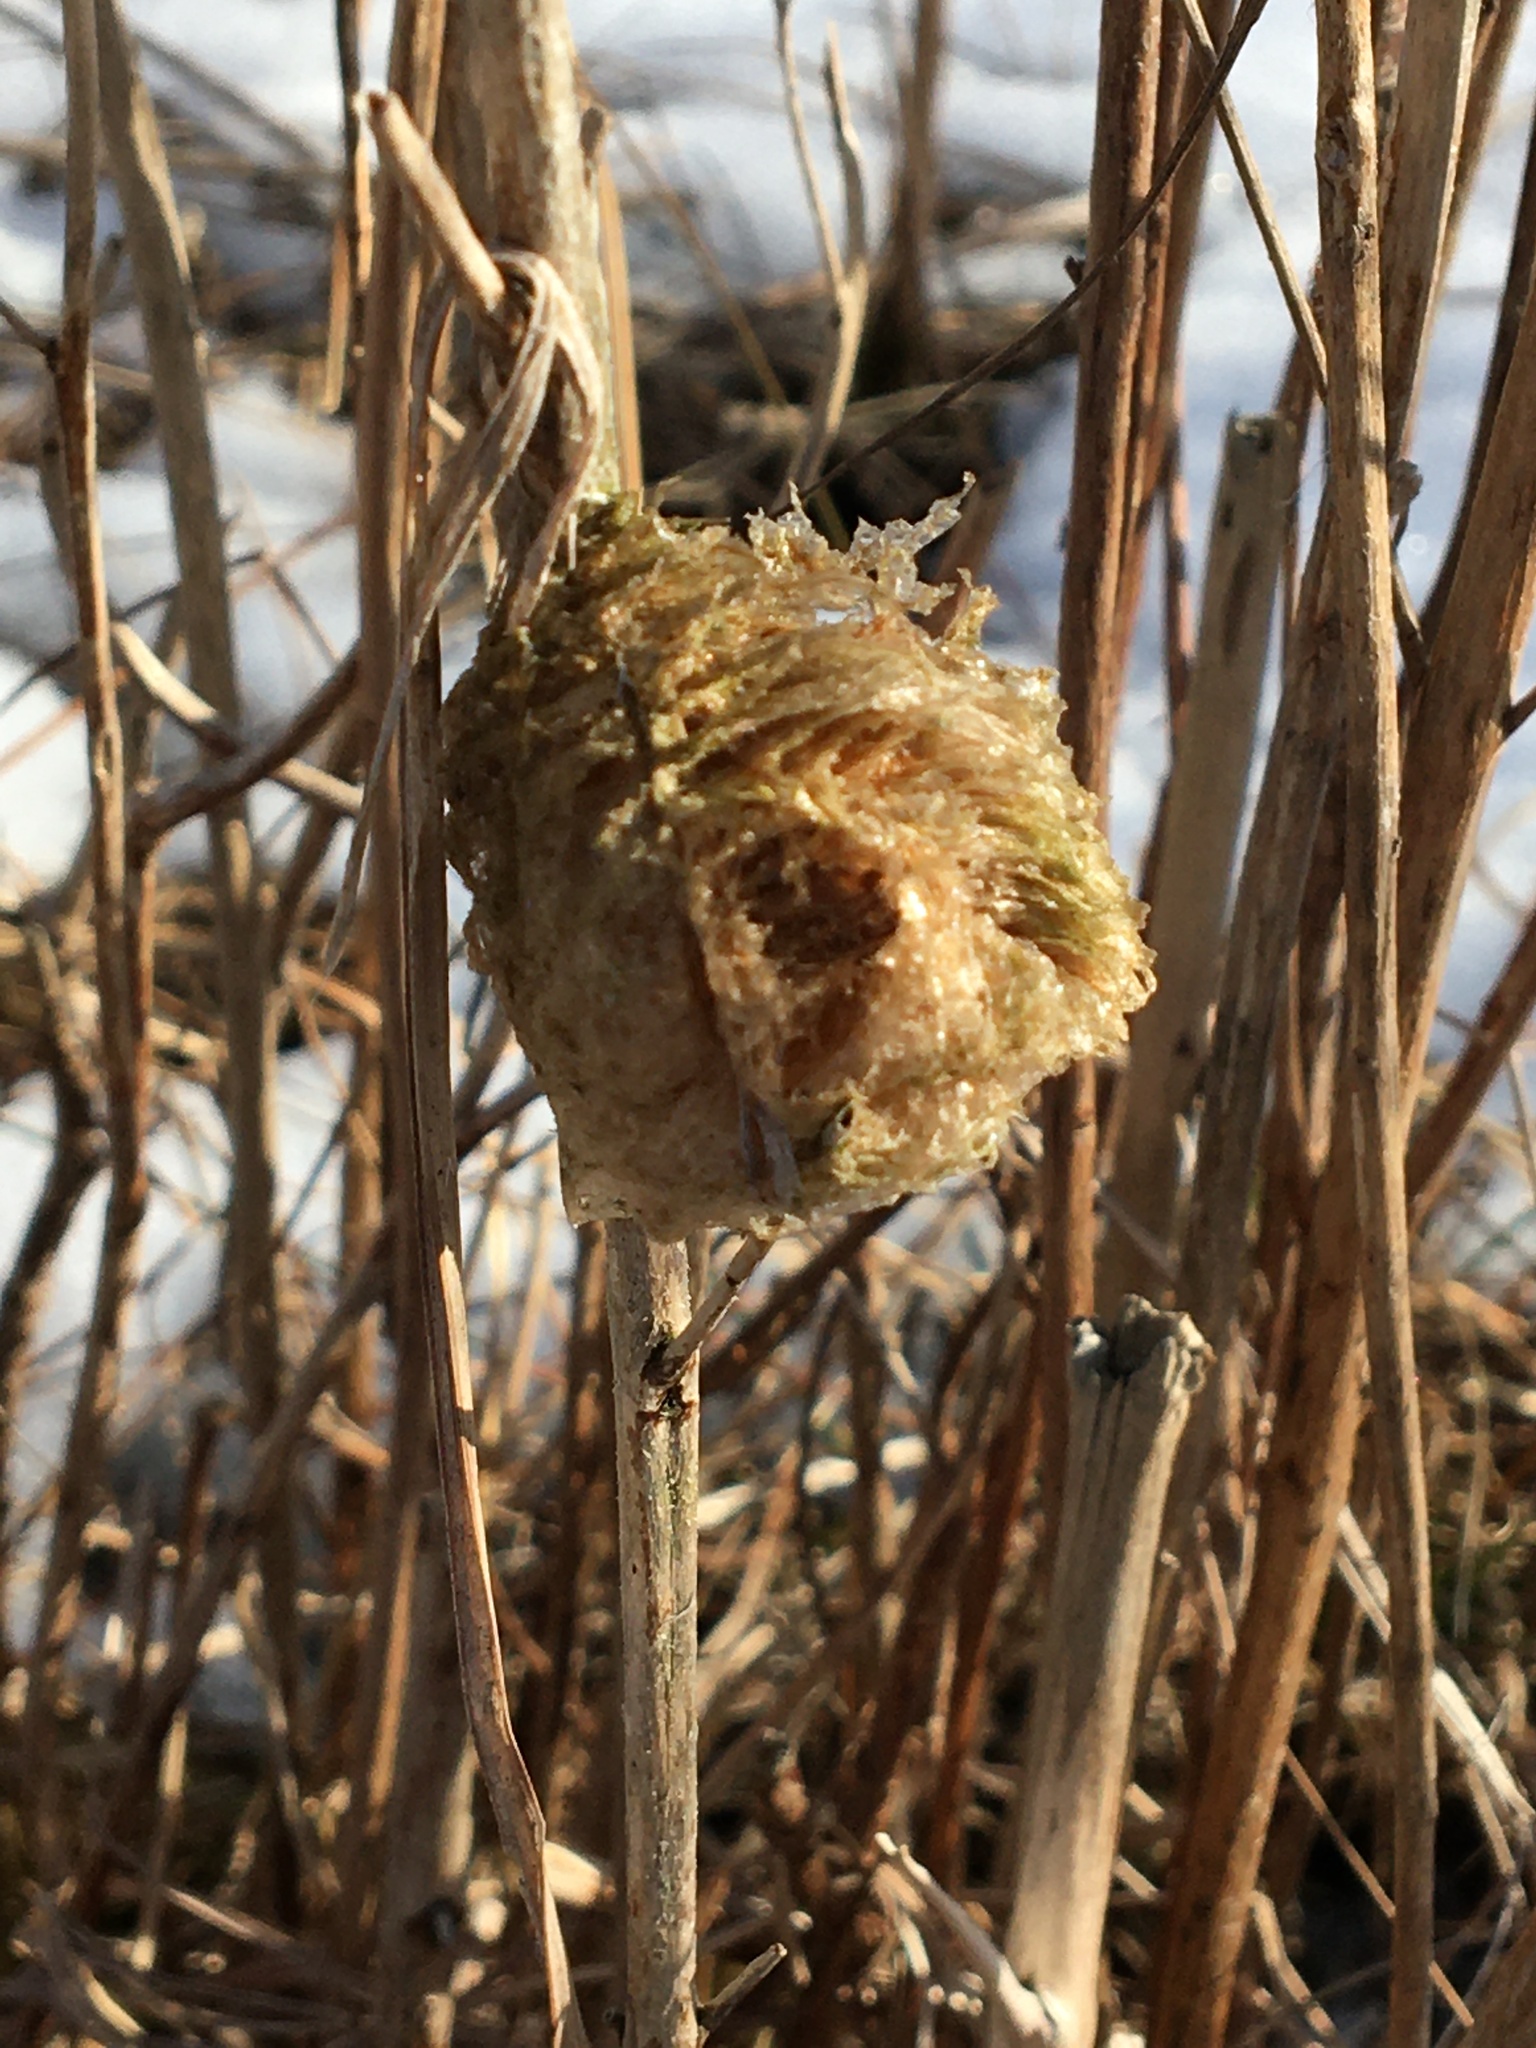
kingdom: Animalia
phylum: Arthropoda
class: Insecta
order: Mantodea
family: Mantidae
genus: Tenodera
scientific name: Tenodera sinensis
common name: Chinese mantis
